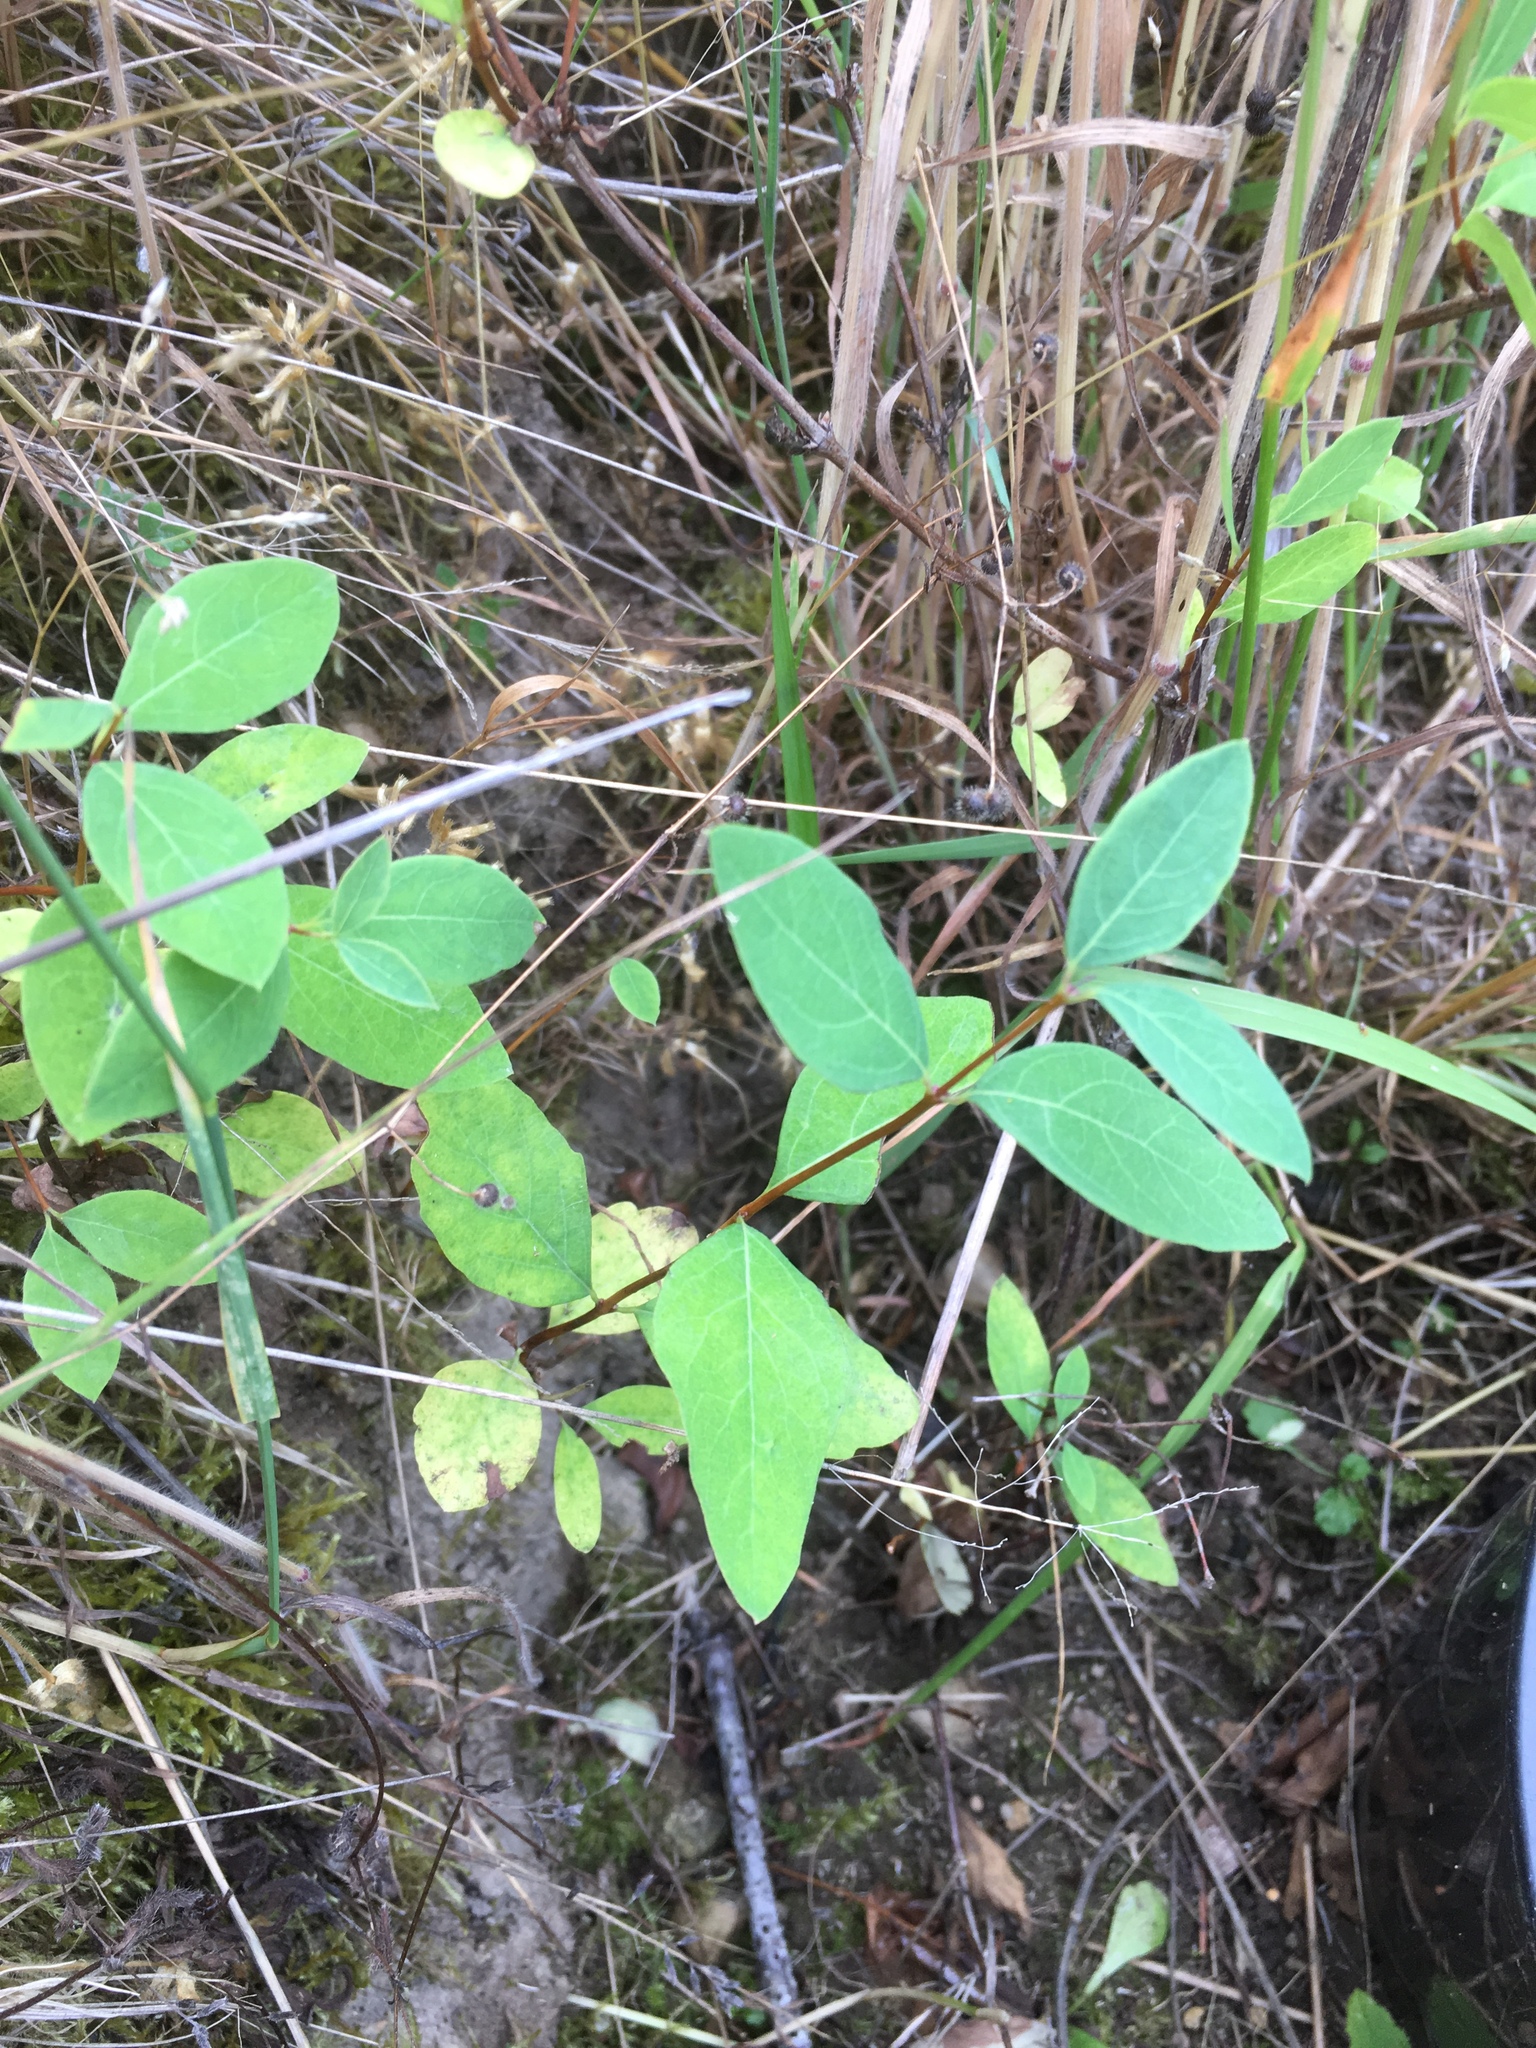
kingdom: Plantae
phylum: Tracheophyta
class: Magnoliopsida
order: Dipsacales
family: Caprifoliaceae
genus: Symphoricarpos
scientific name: Symphoricarpos albus
